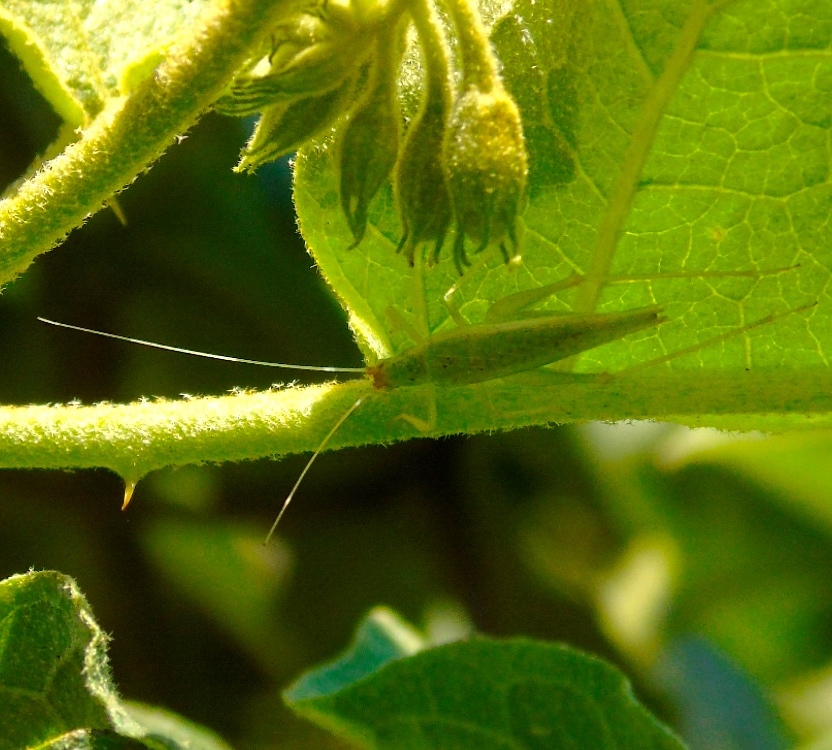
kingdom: Animalia
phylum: Arthropoda
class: Insecta
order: Orthoptera
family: Gryllidae
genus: Oecanthus
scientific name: Oecanthus
